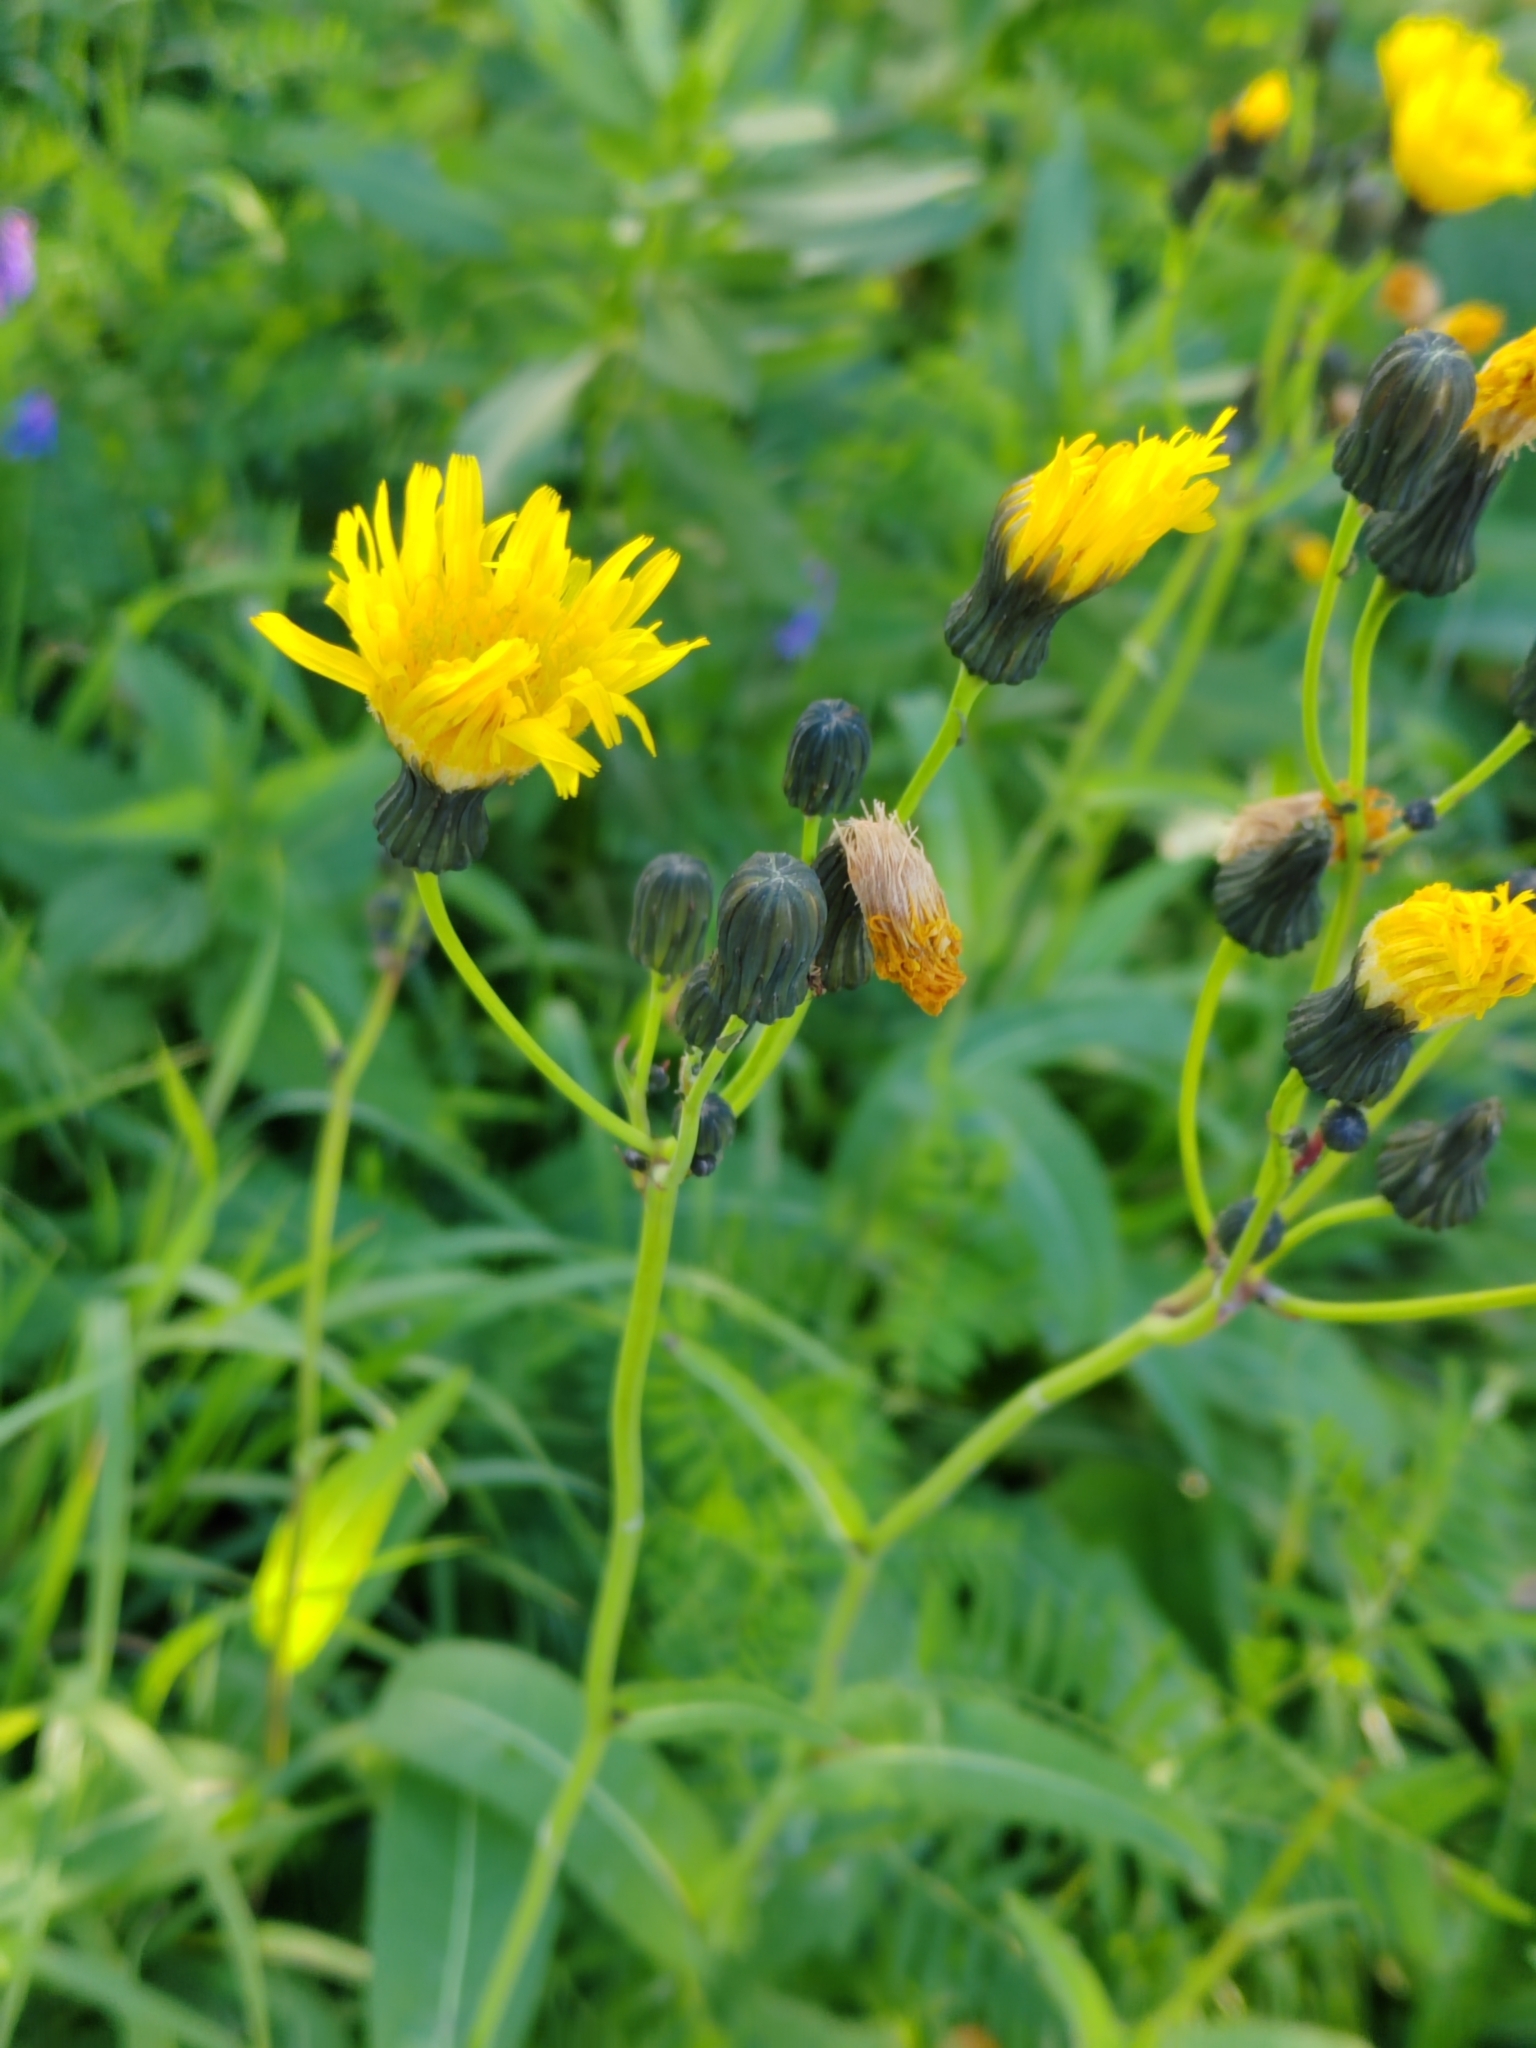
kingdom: Plantae
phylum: Tracheophyta
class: Magnoliopsida
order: Asterales
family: Asteraceae
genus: Sonchus
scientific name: Sonchus arvensis
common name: Perennial sow-thistle
